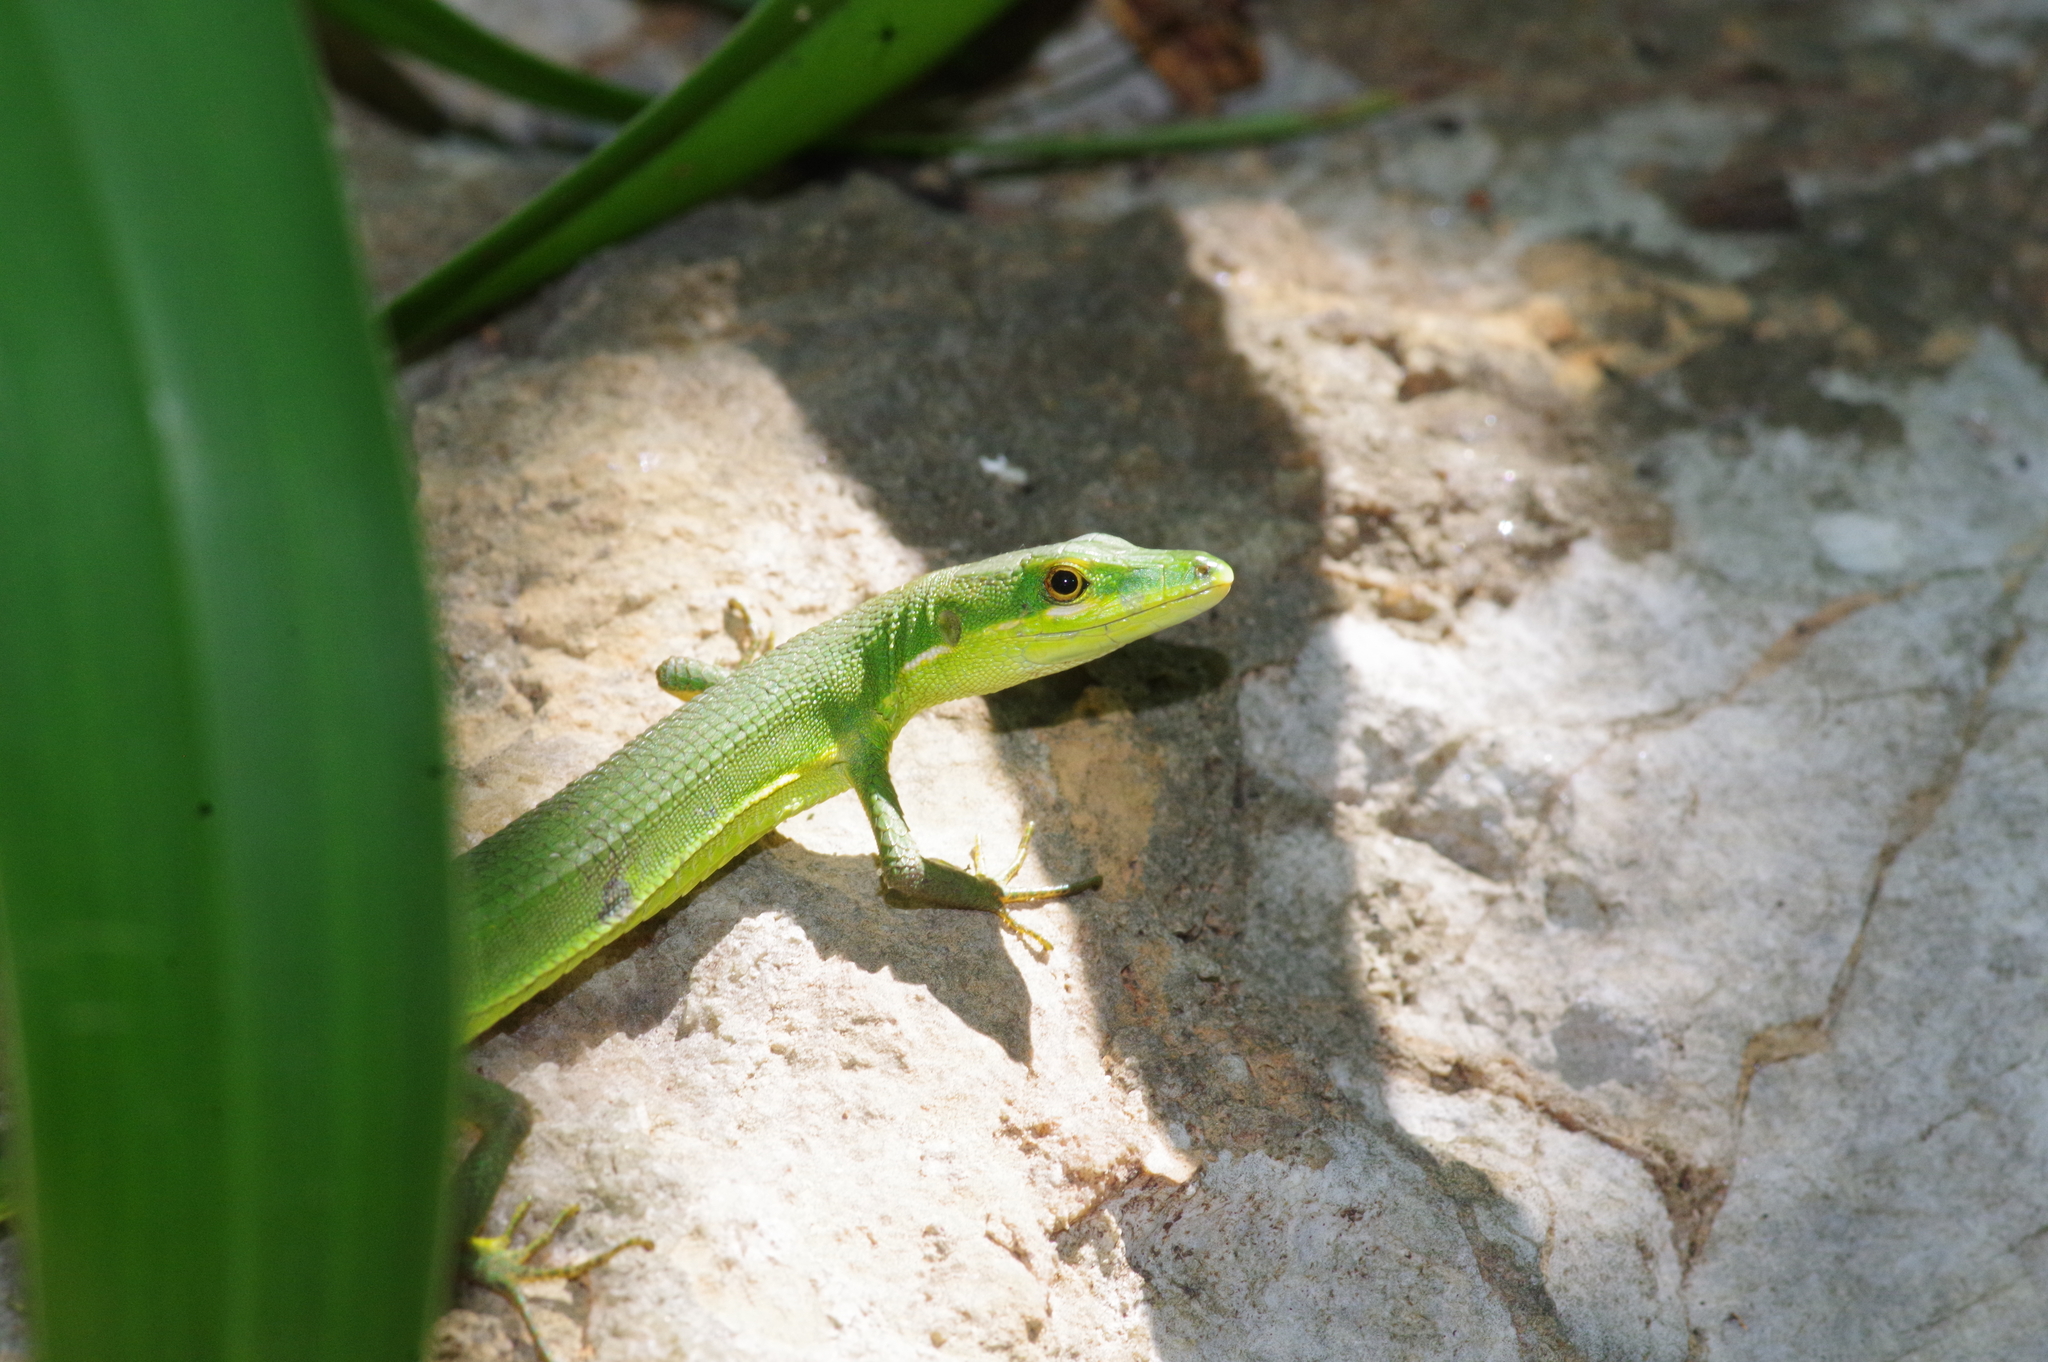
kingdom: Animalia
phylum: Chordata
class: Squamata
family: Lacertidae
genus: Takydromus
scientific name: Takydromus smaragdinus
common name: Green grass lizard
